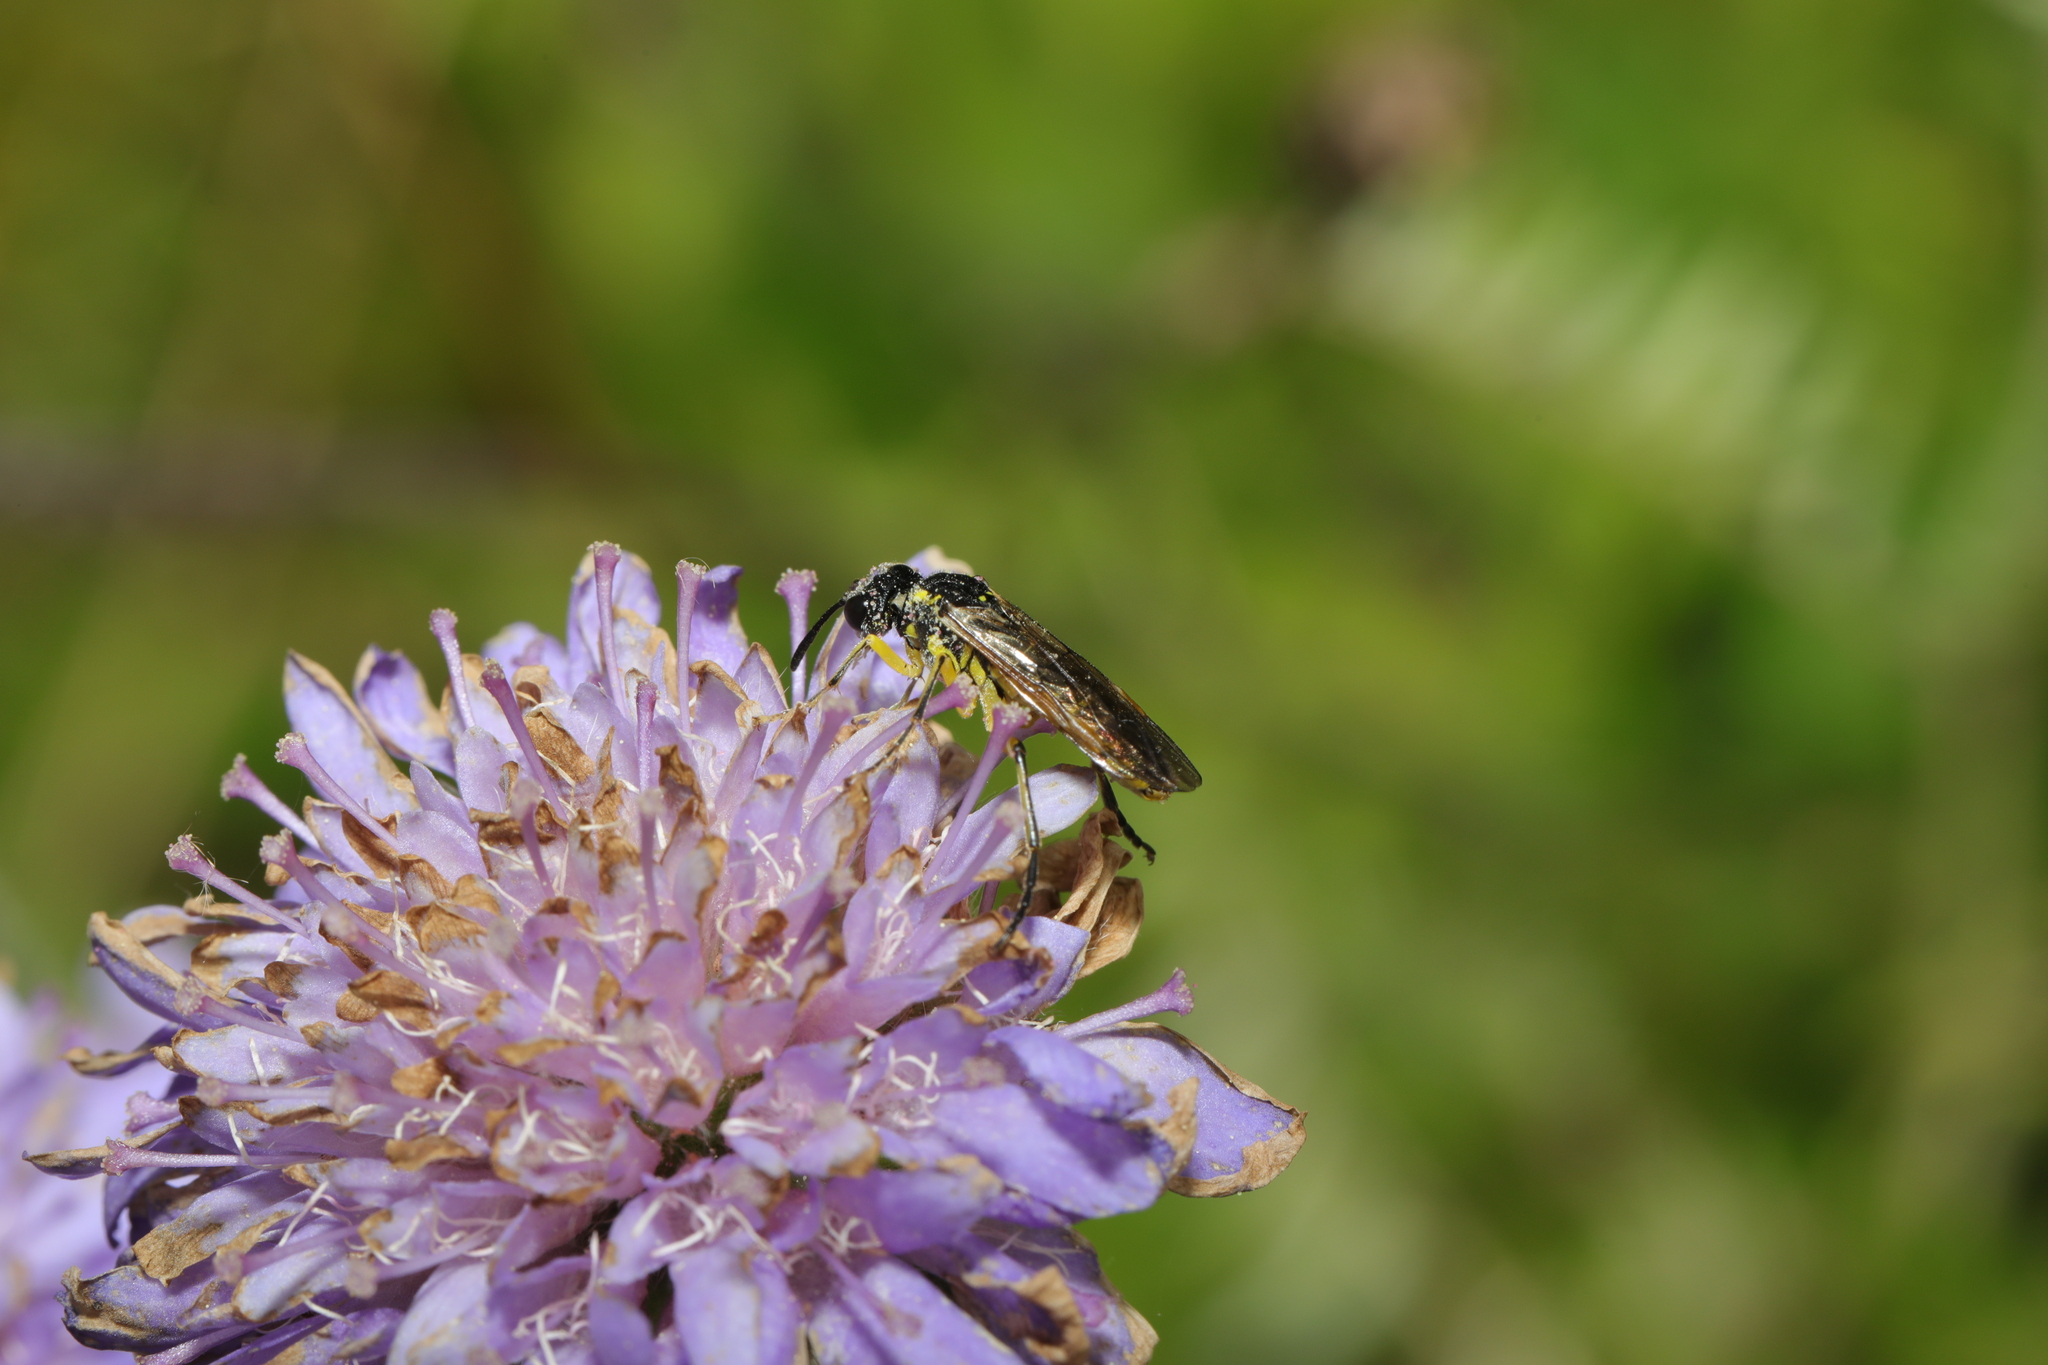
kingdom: Animalia
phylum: Arthropoda
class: Insecta
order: Hymenoptera
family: Tenthredinidae
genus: Tenthredo
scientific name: Tenthredo
